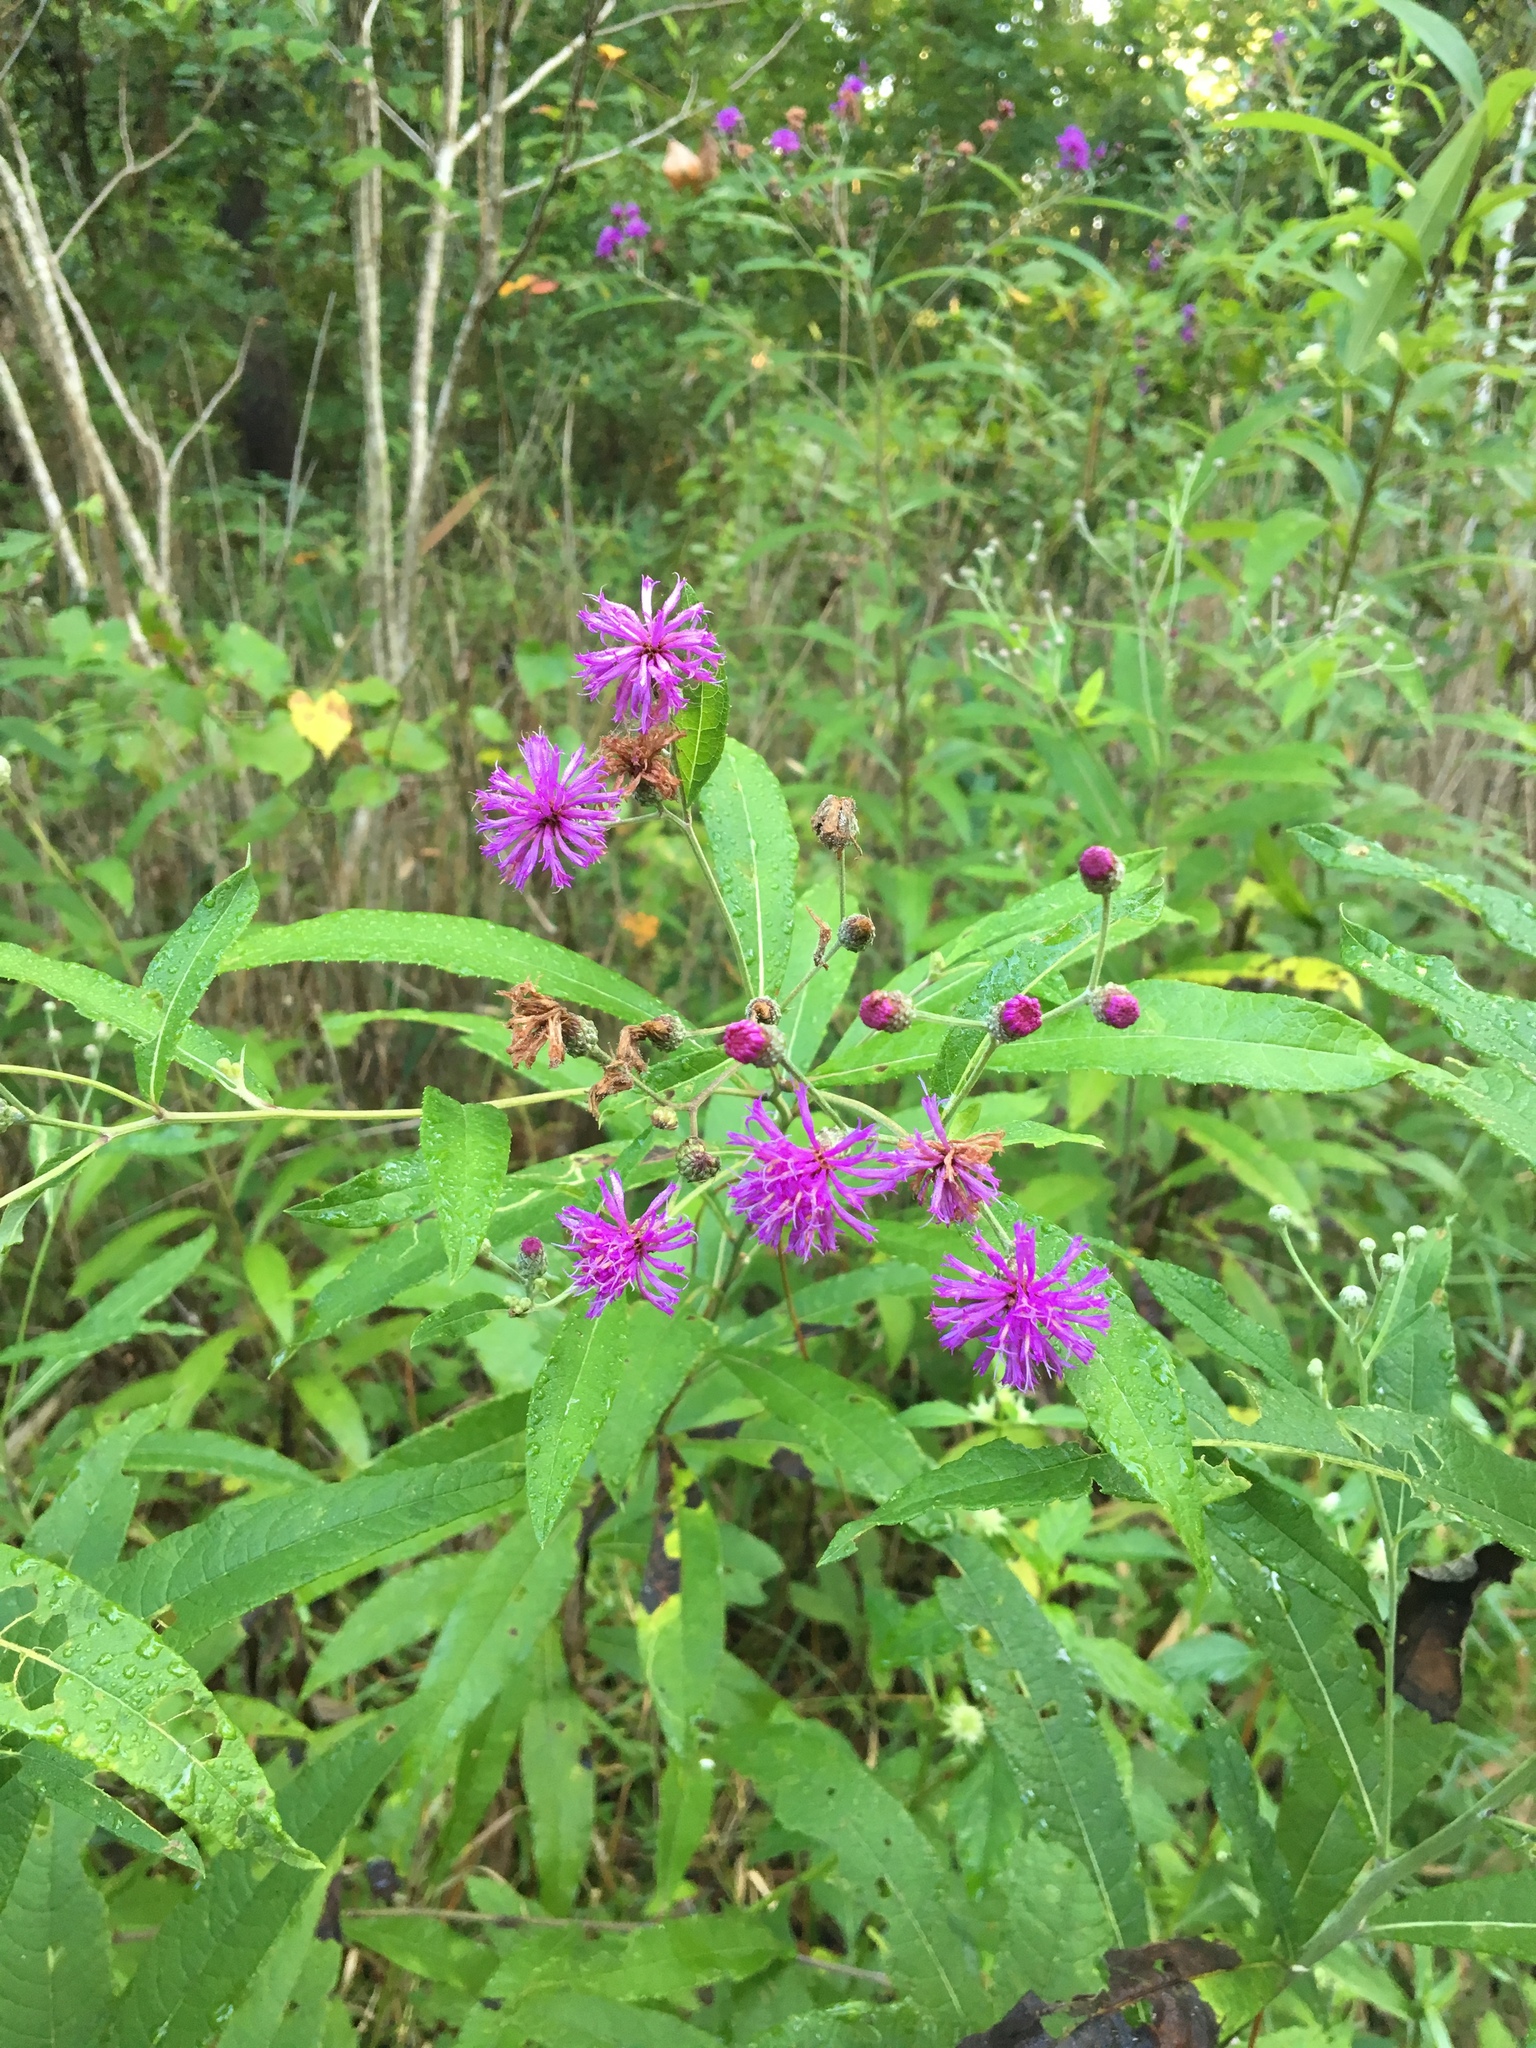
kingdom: Plantae
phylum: Tracheophyta
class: Magnoliopsida
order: Asterales
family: Asteraceae
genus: Vernonia
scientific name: Vernonia gigantea
